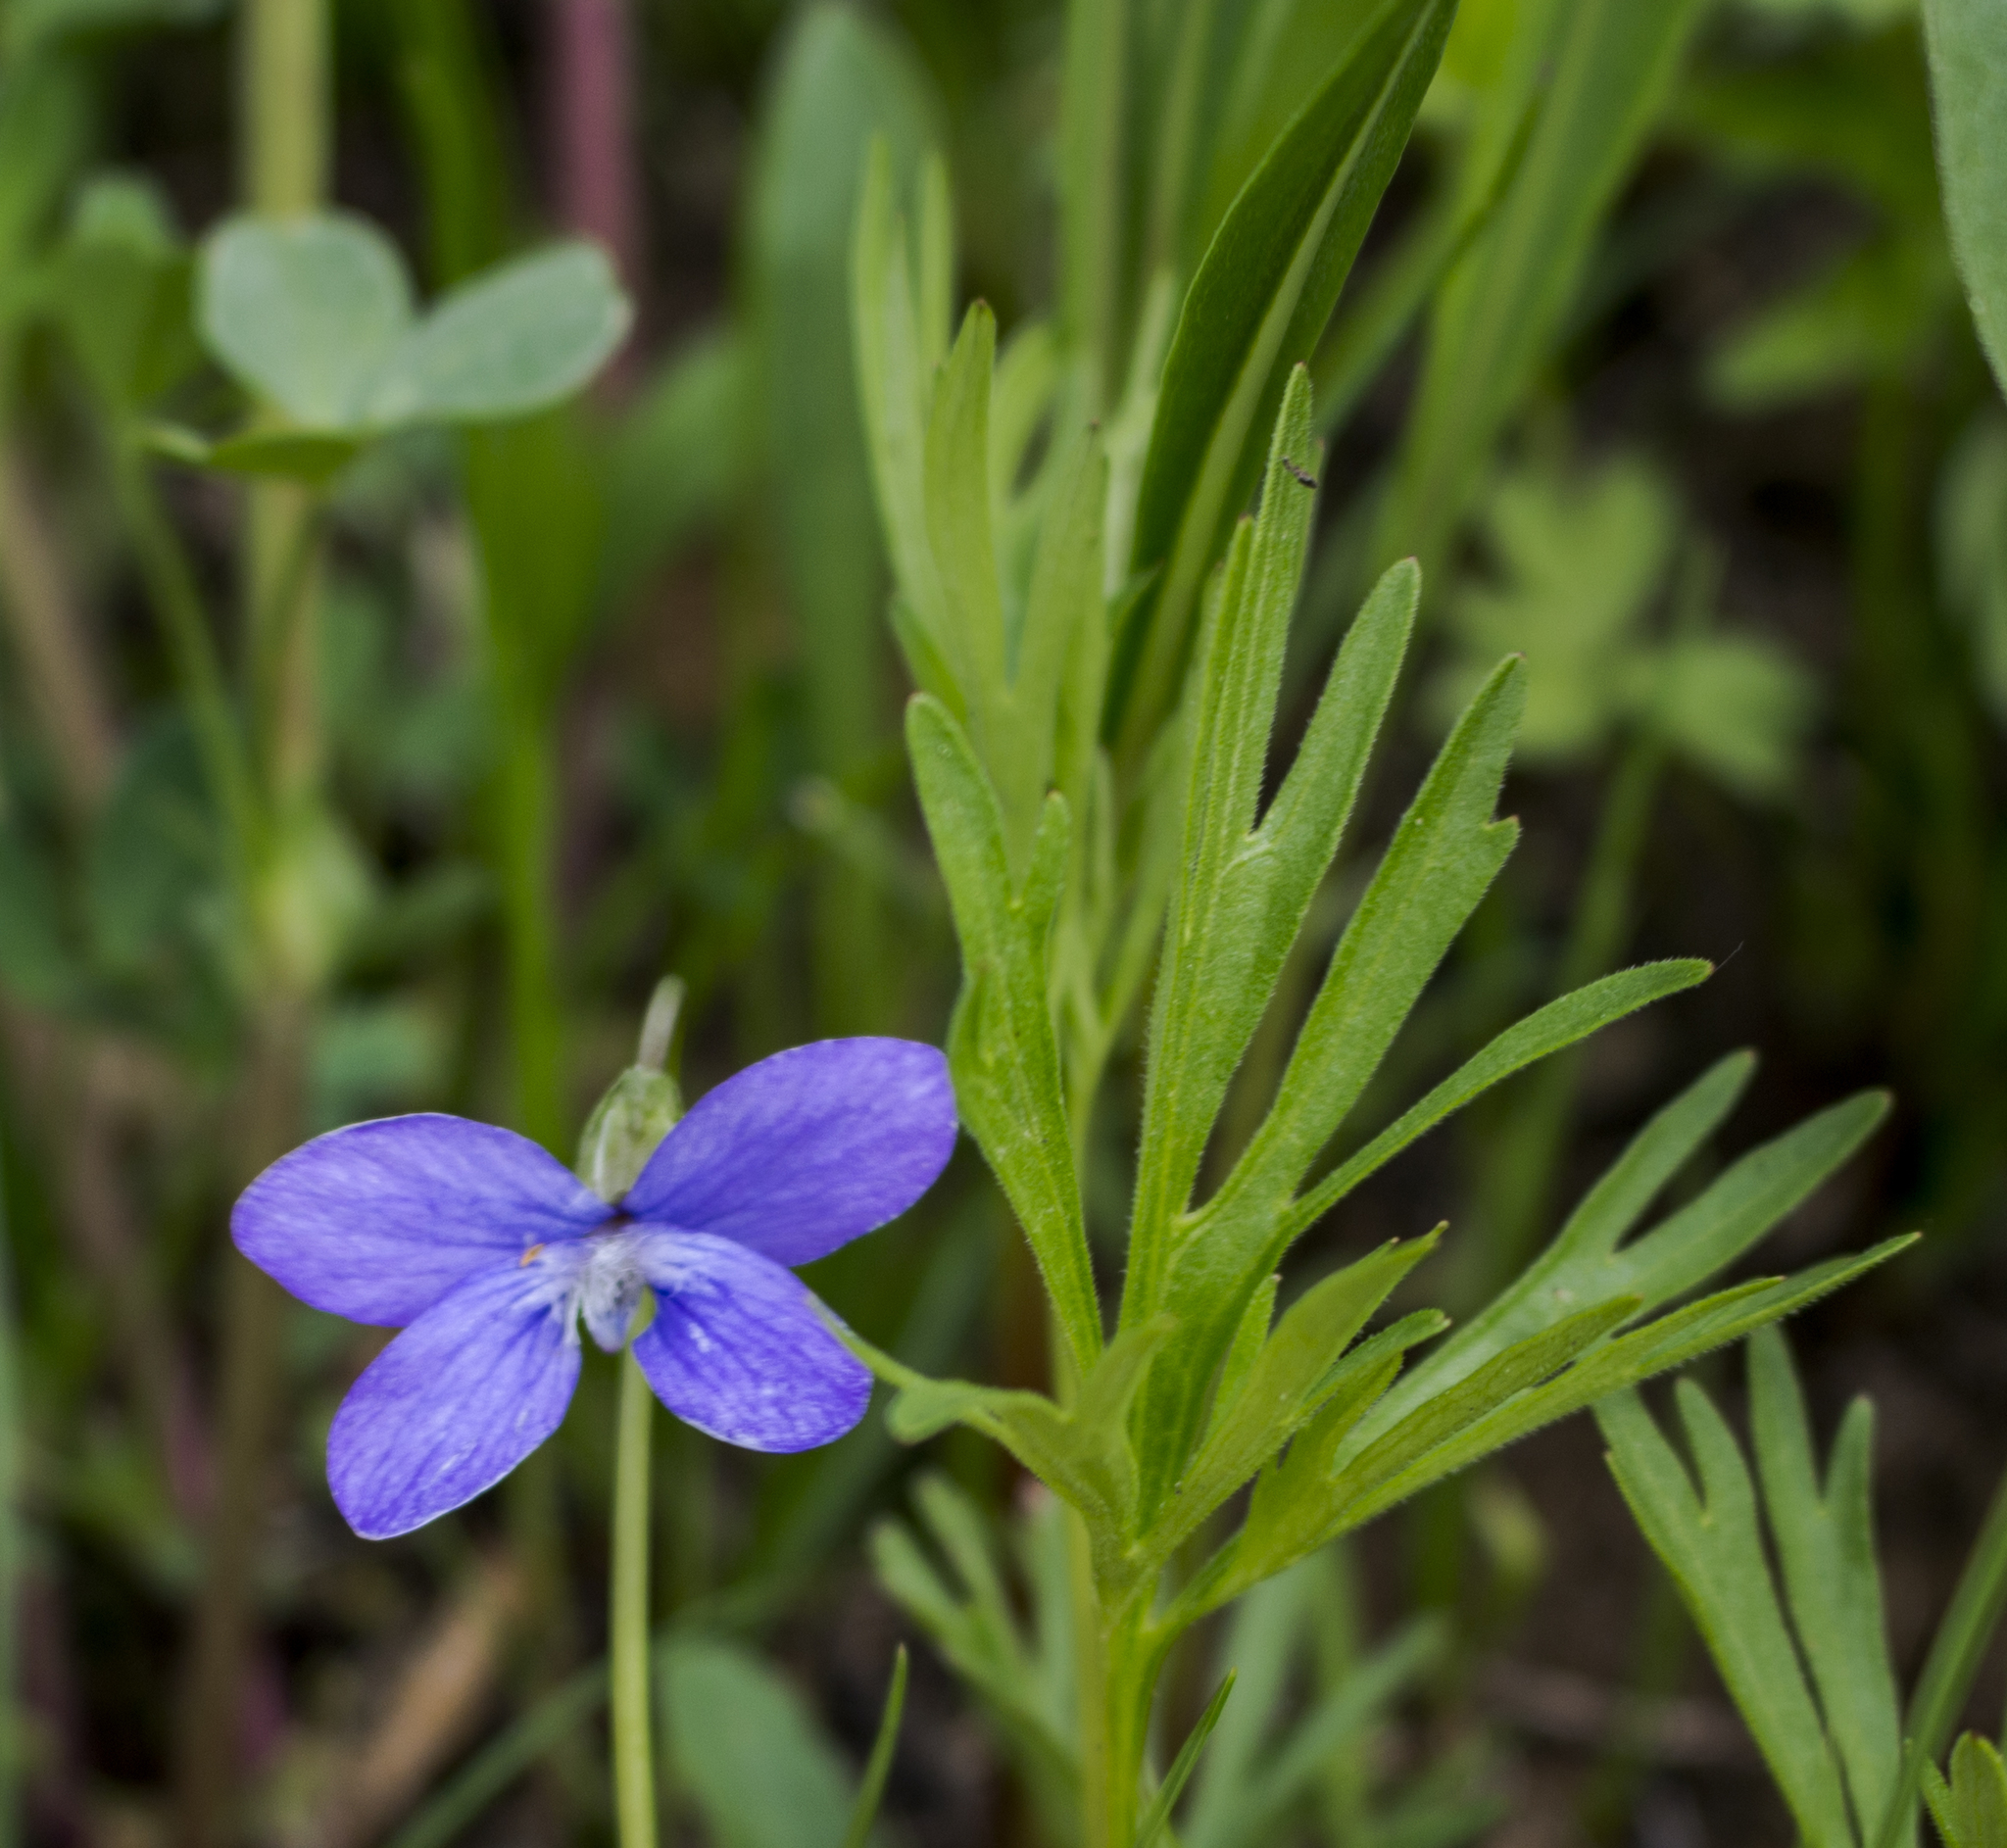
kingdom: Plantae
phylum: Tracheophyta
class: Magnoliopsida
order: Malpighiales
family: Violaceae
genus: Viola
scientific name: Viola pedatifida
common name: Prairie violet
